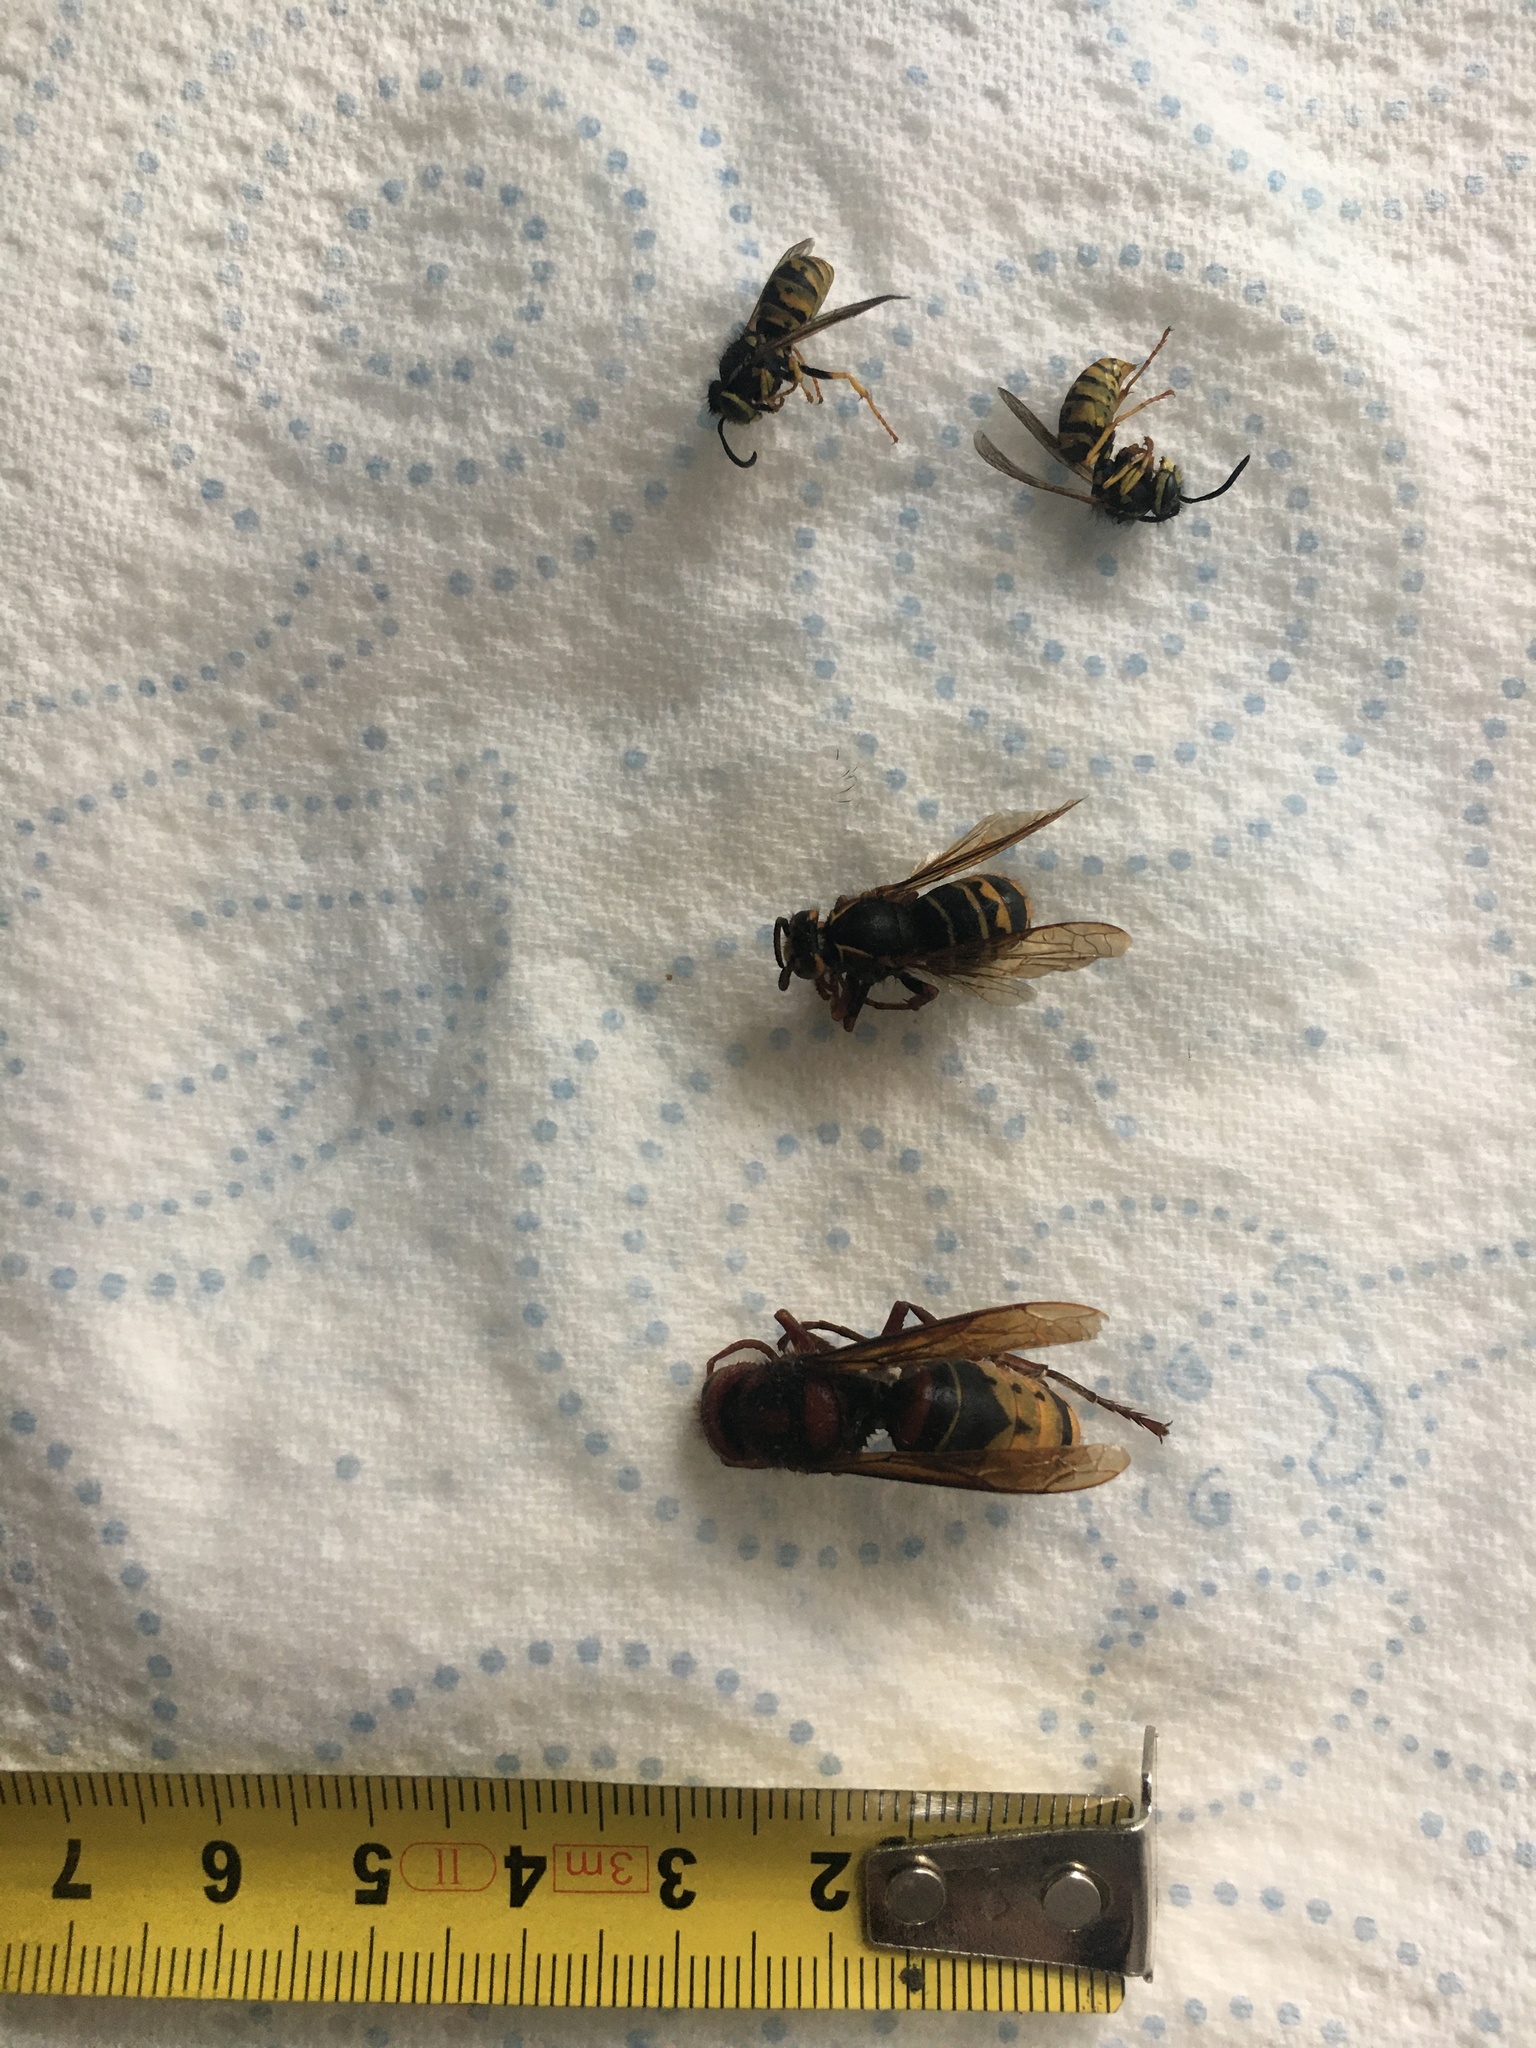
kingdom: Animalia
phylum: Arthropoda
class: Insecta
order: Hymenoptera
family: Vespidae
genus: Vespa
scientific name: Vespa crabro
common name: Hornet
